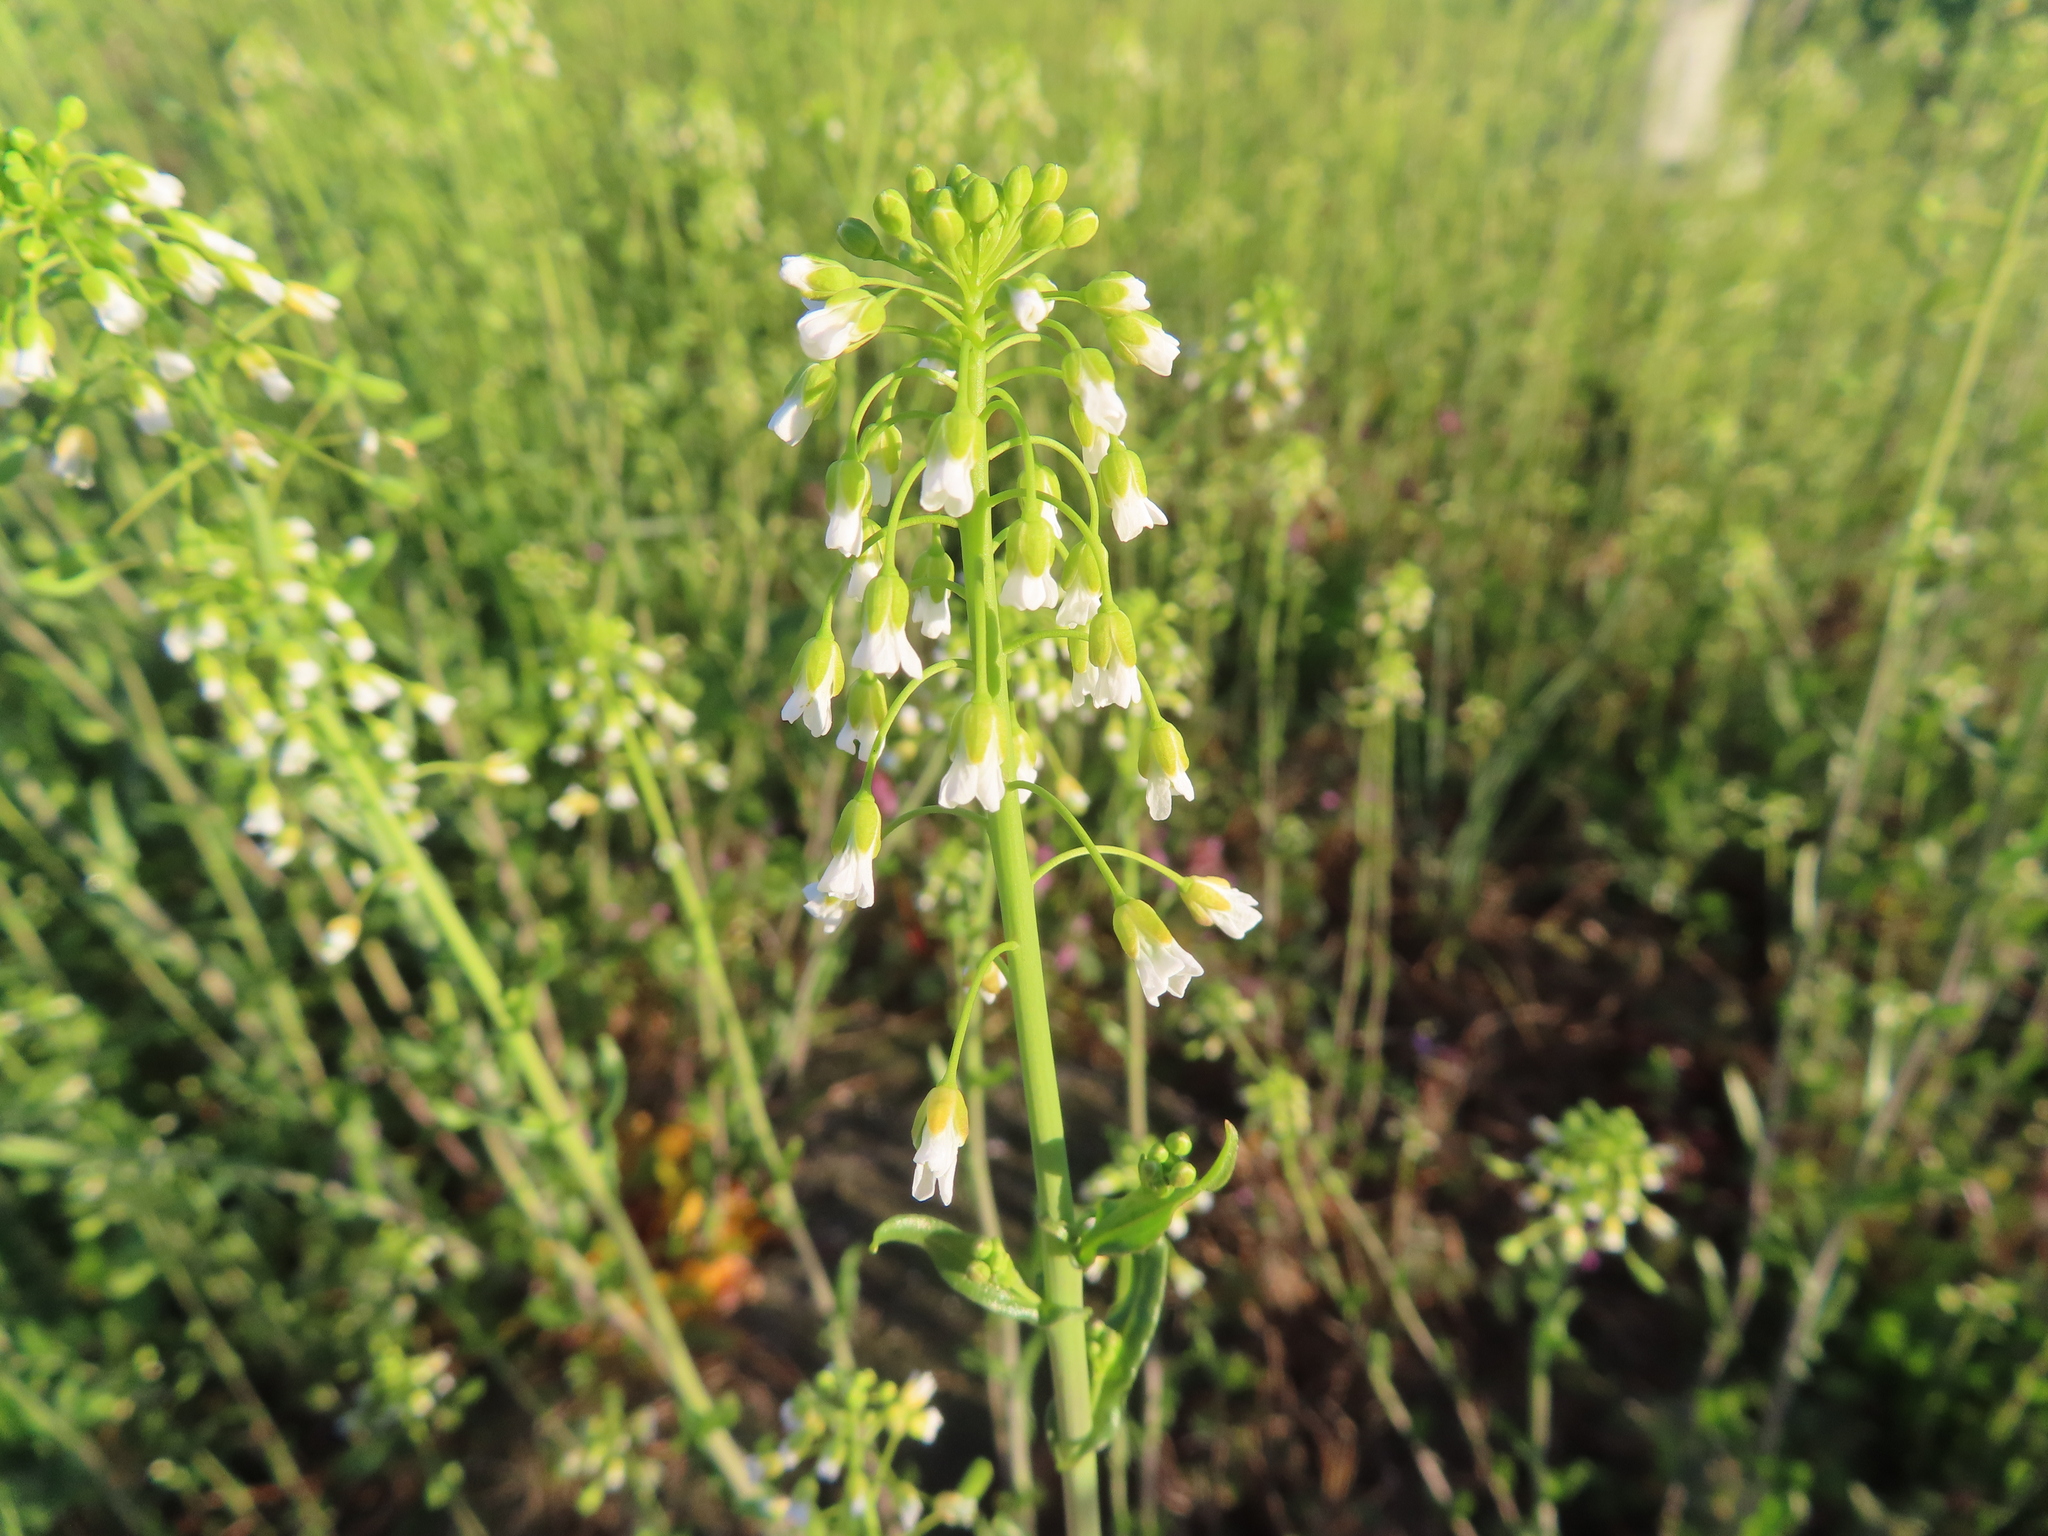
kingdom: Plantae
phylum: Tracheophyta
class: Magnoliopsida
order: Brassicales
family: Brassicaceae
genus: Mummenhoffia
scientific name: Mummenhoffia alliacea
